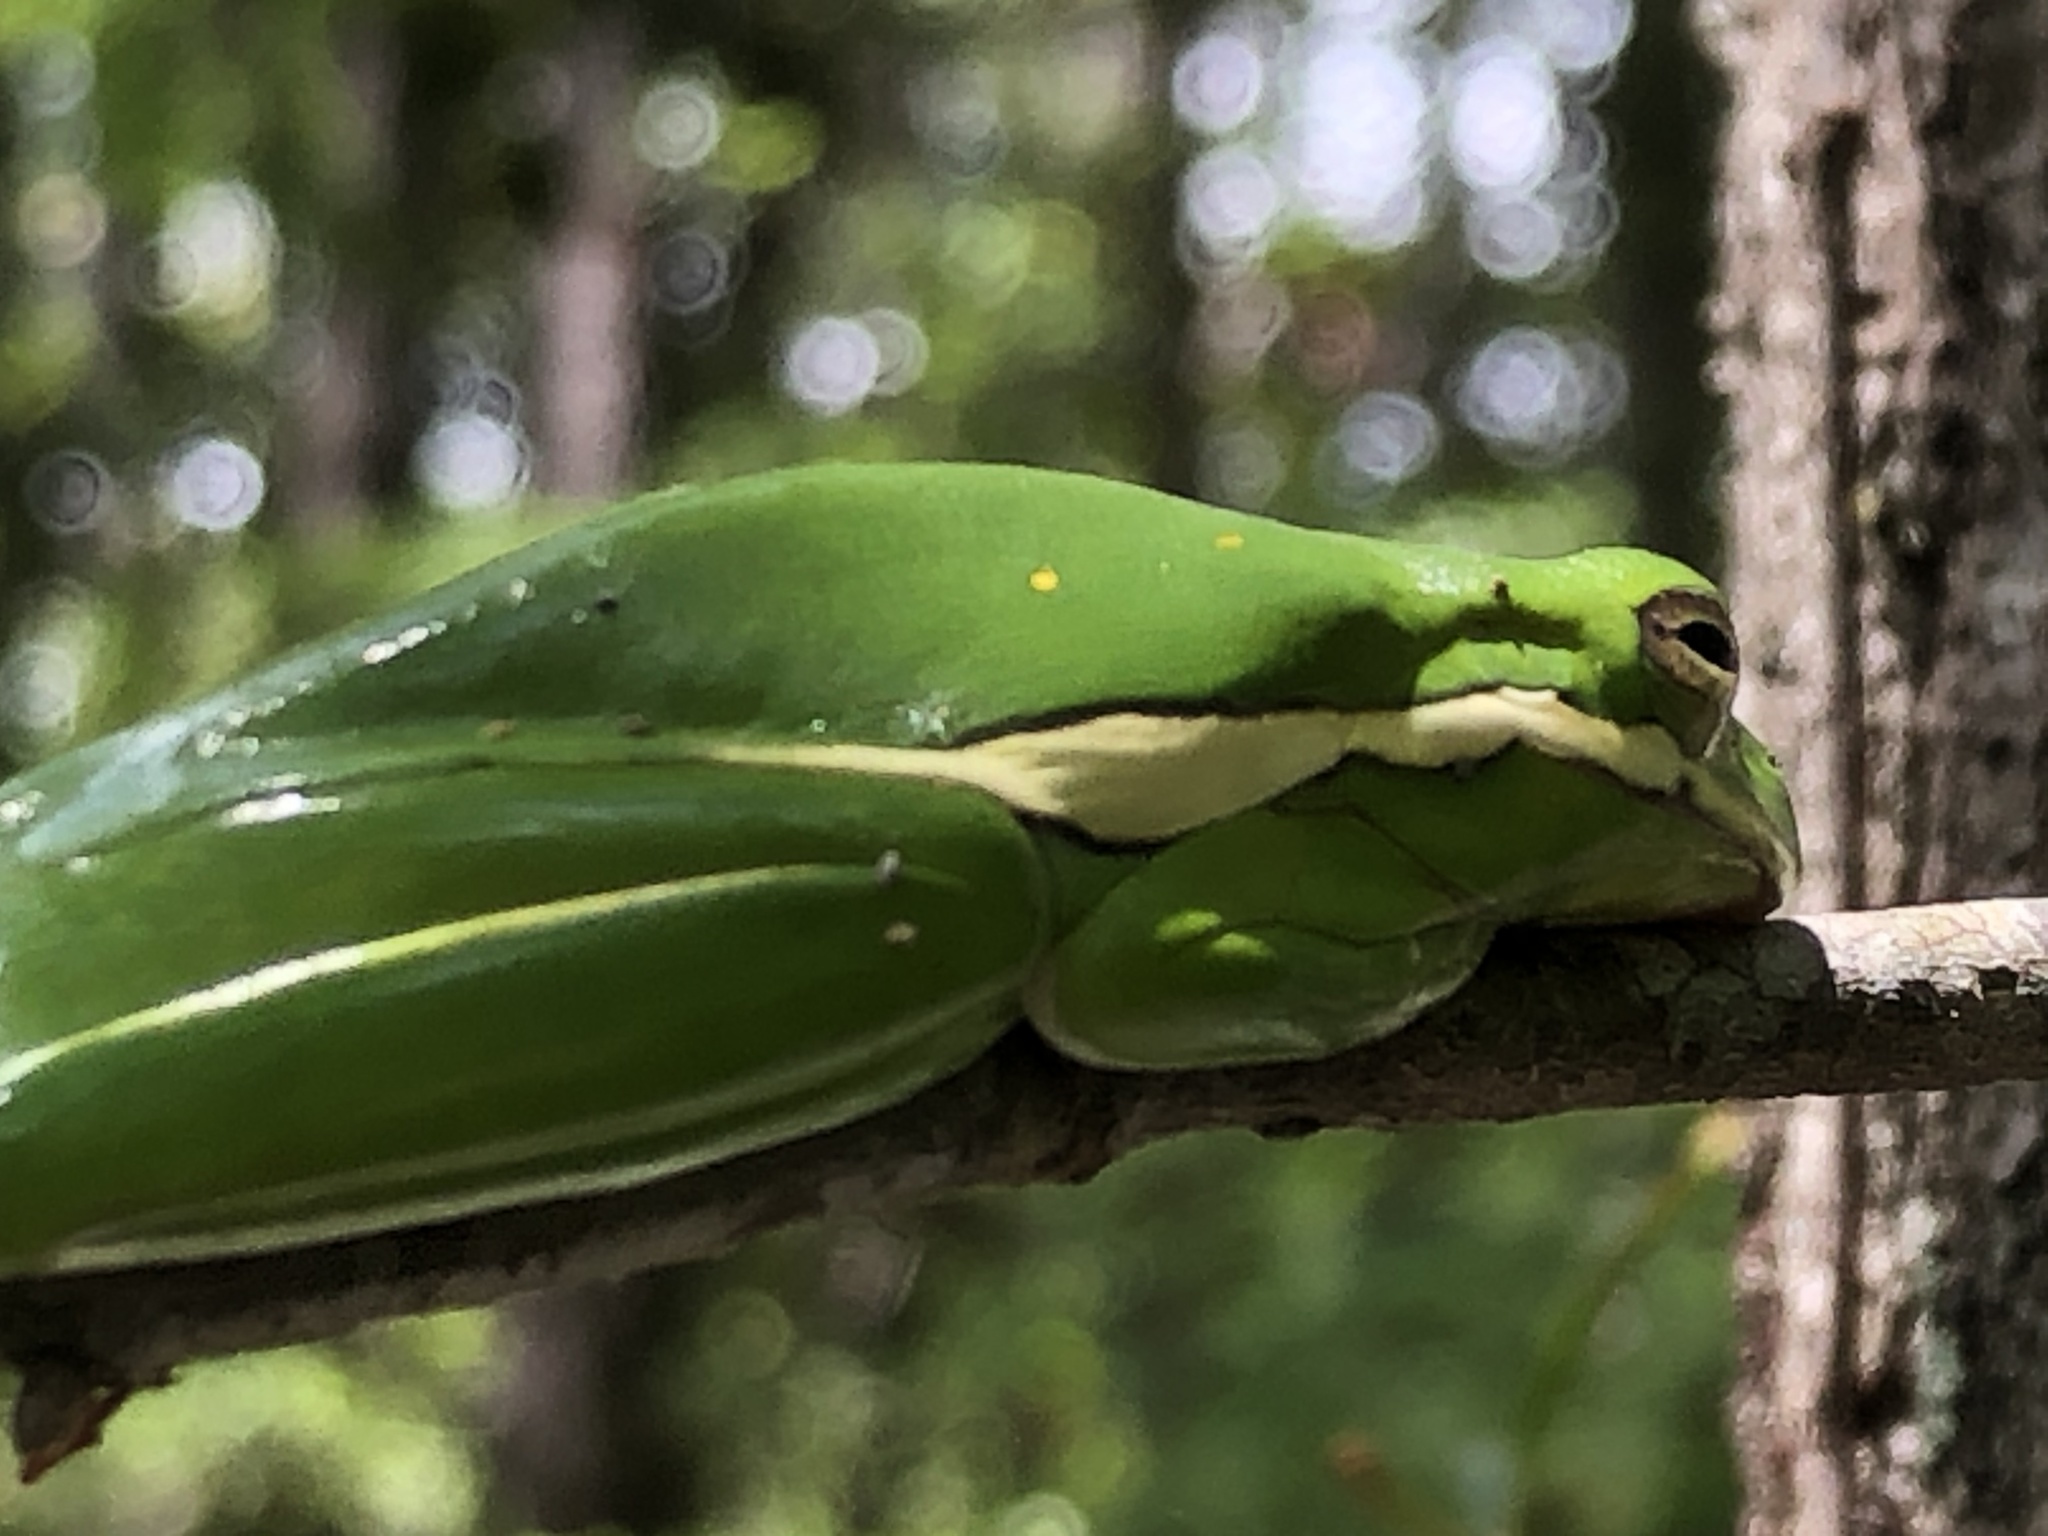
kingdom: Animalia
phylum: Chordata
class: Amphibia
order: Anura
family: Hylidae
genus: Dryophytes
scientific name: Dryophytes cinereus
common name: Green treefrog
